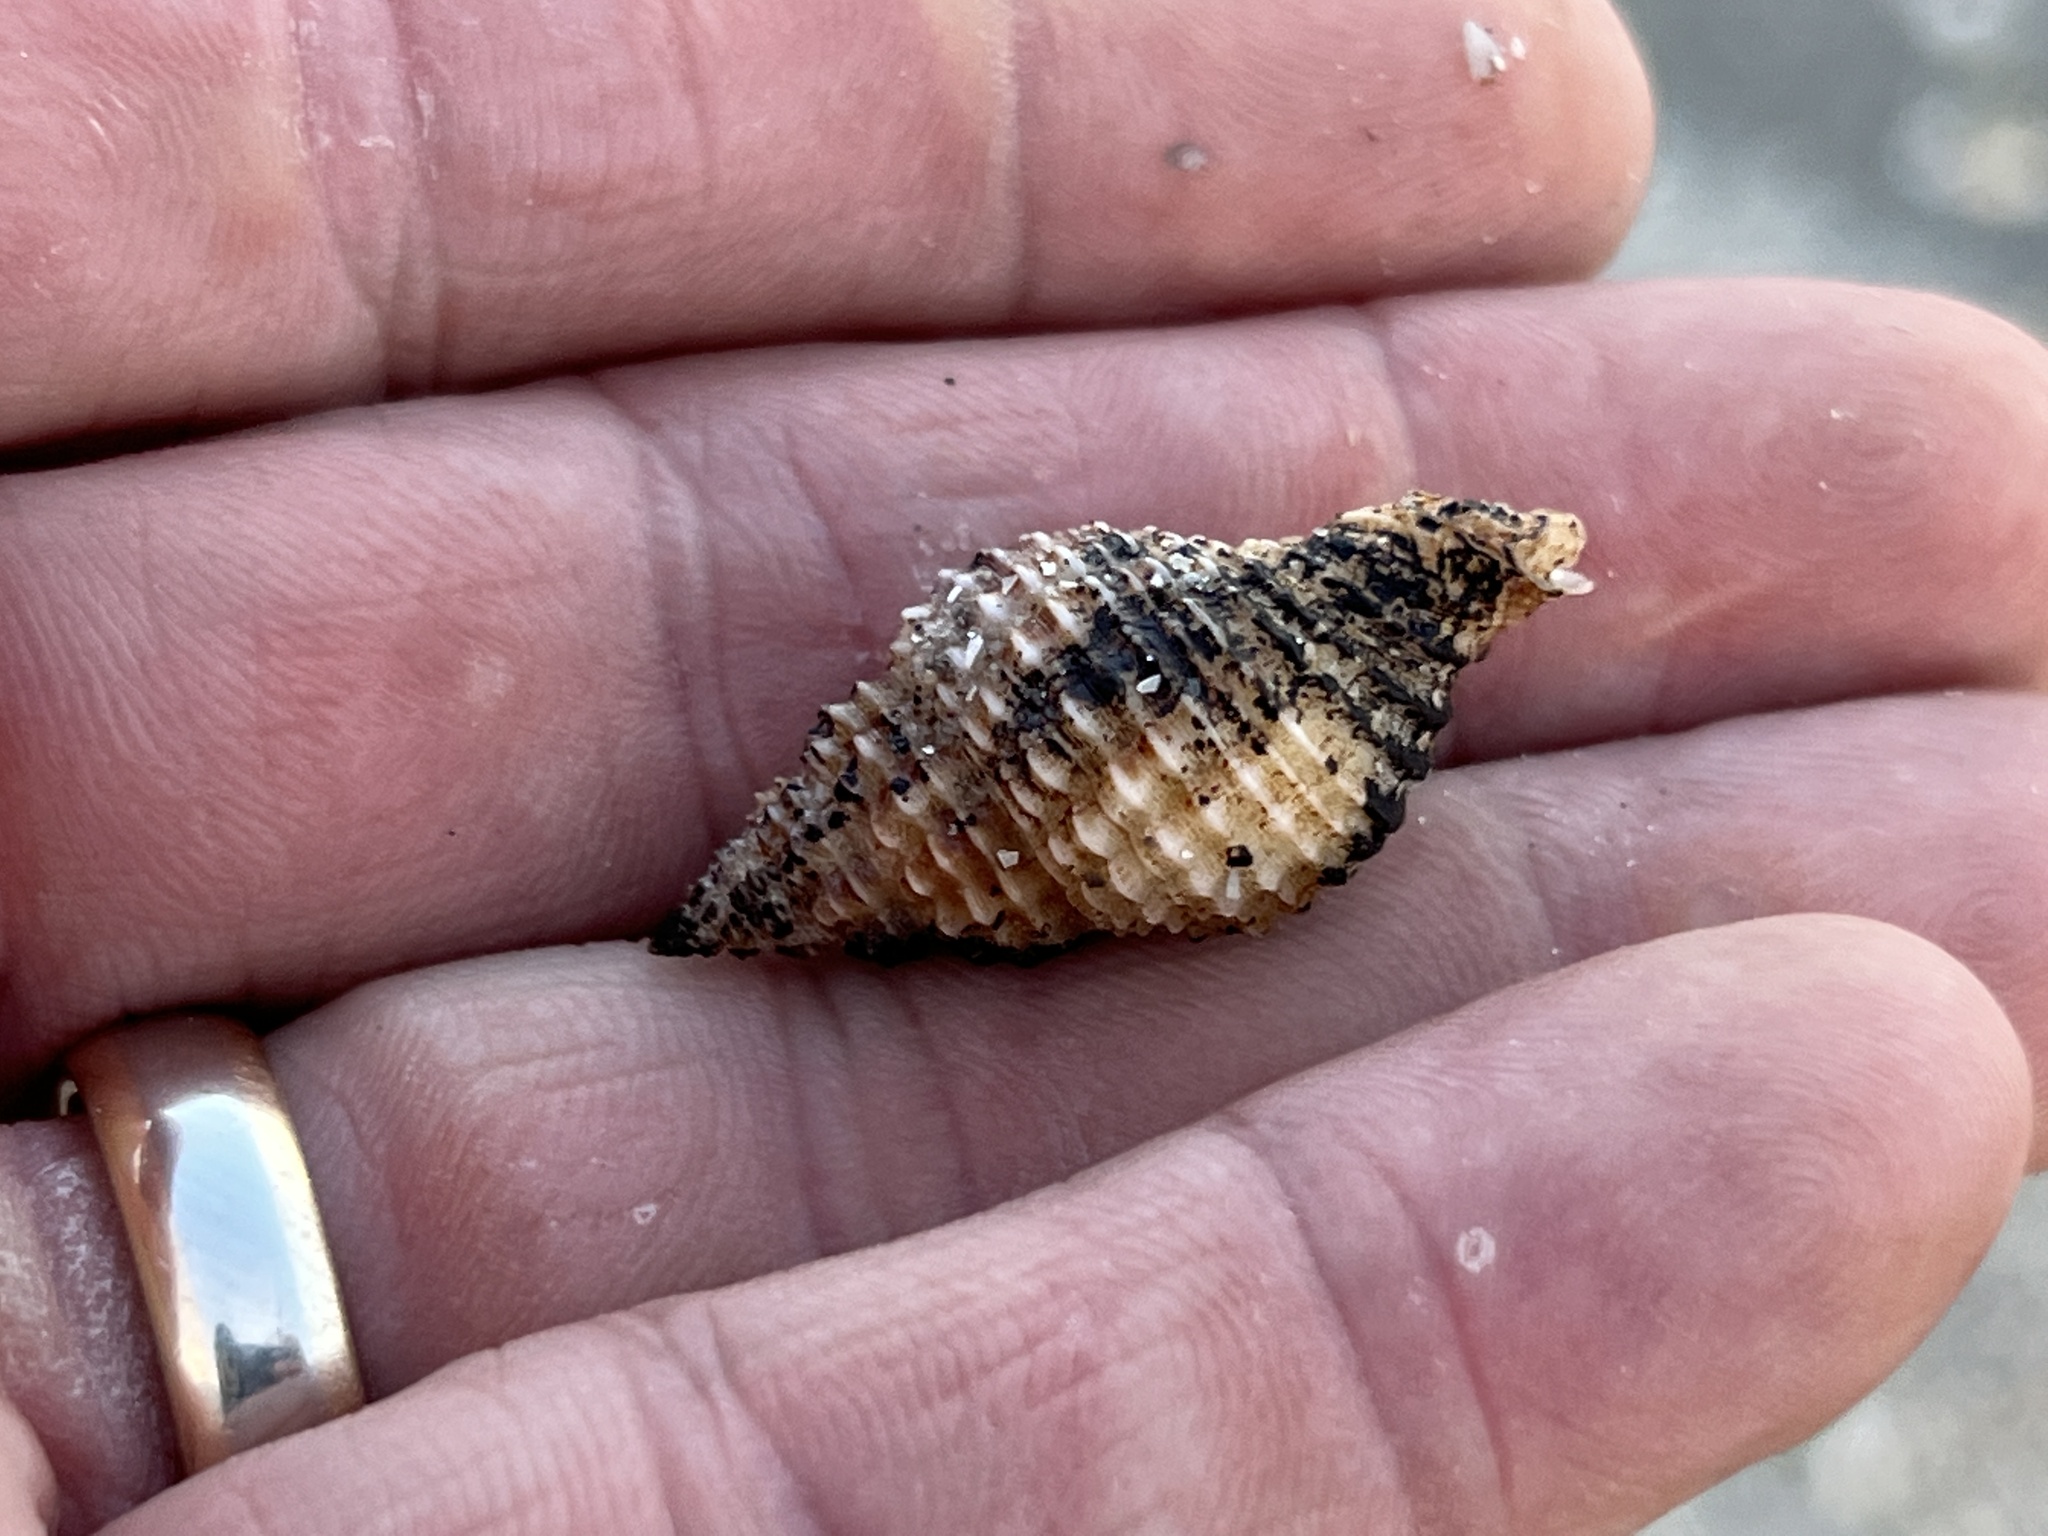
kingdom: Animalia
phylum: Mollusca
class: Gastropoda
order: Neogastropoda
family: Pisaniidae
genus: Solenosteira
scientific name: Solenosteira cancellaria
